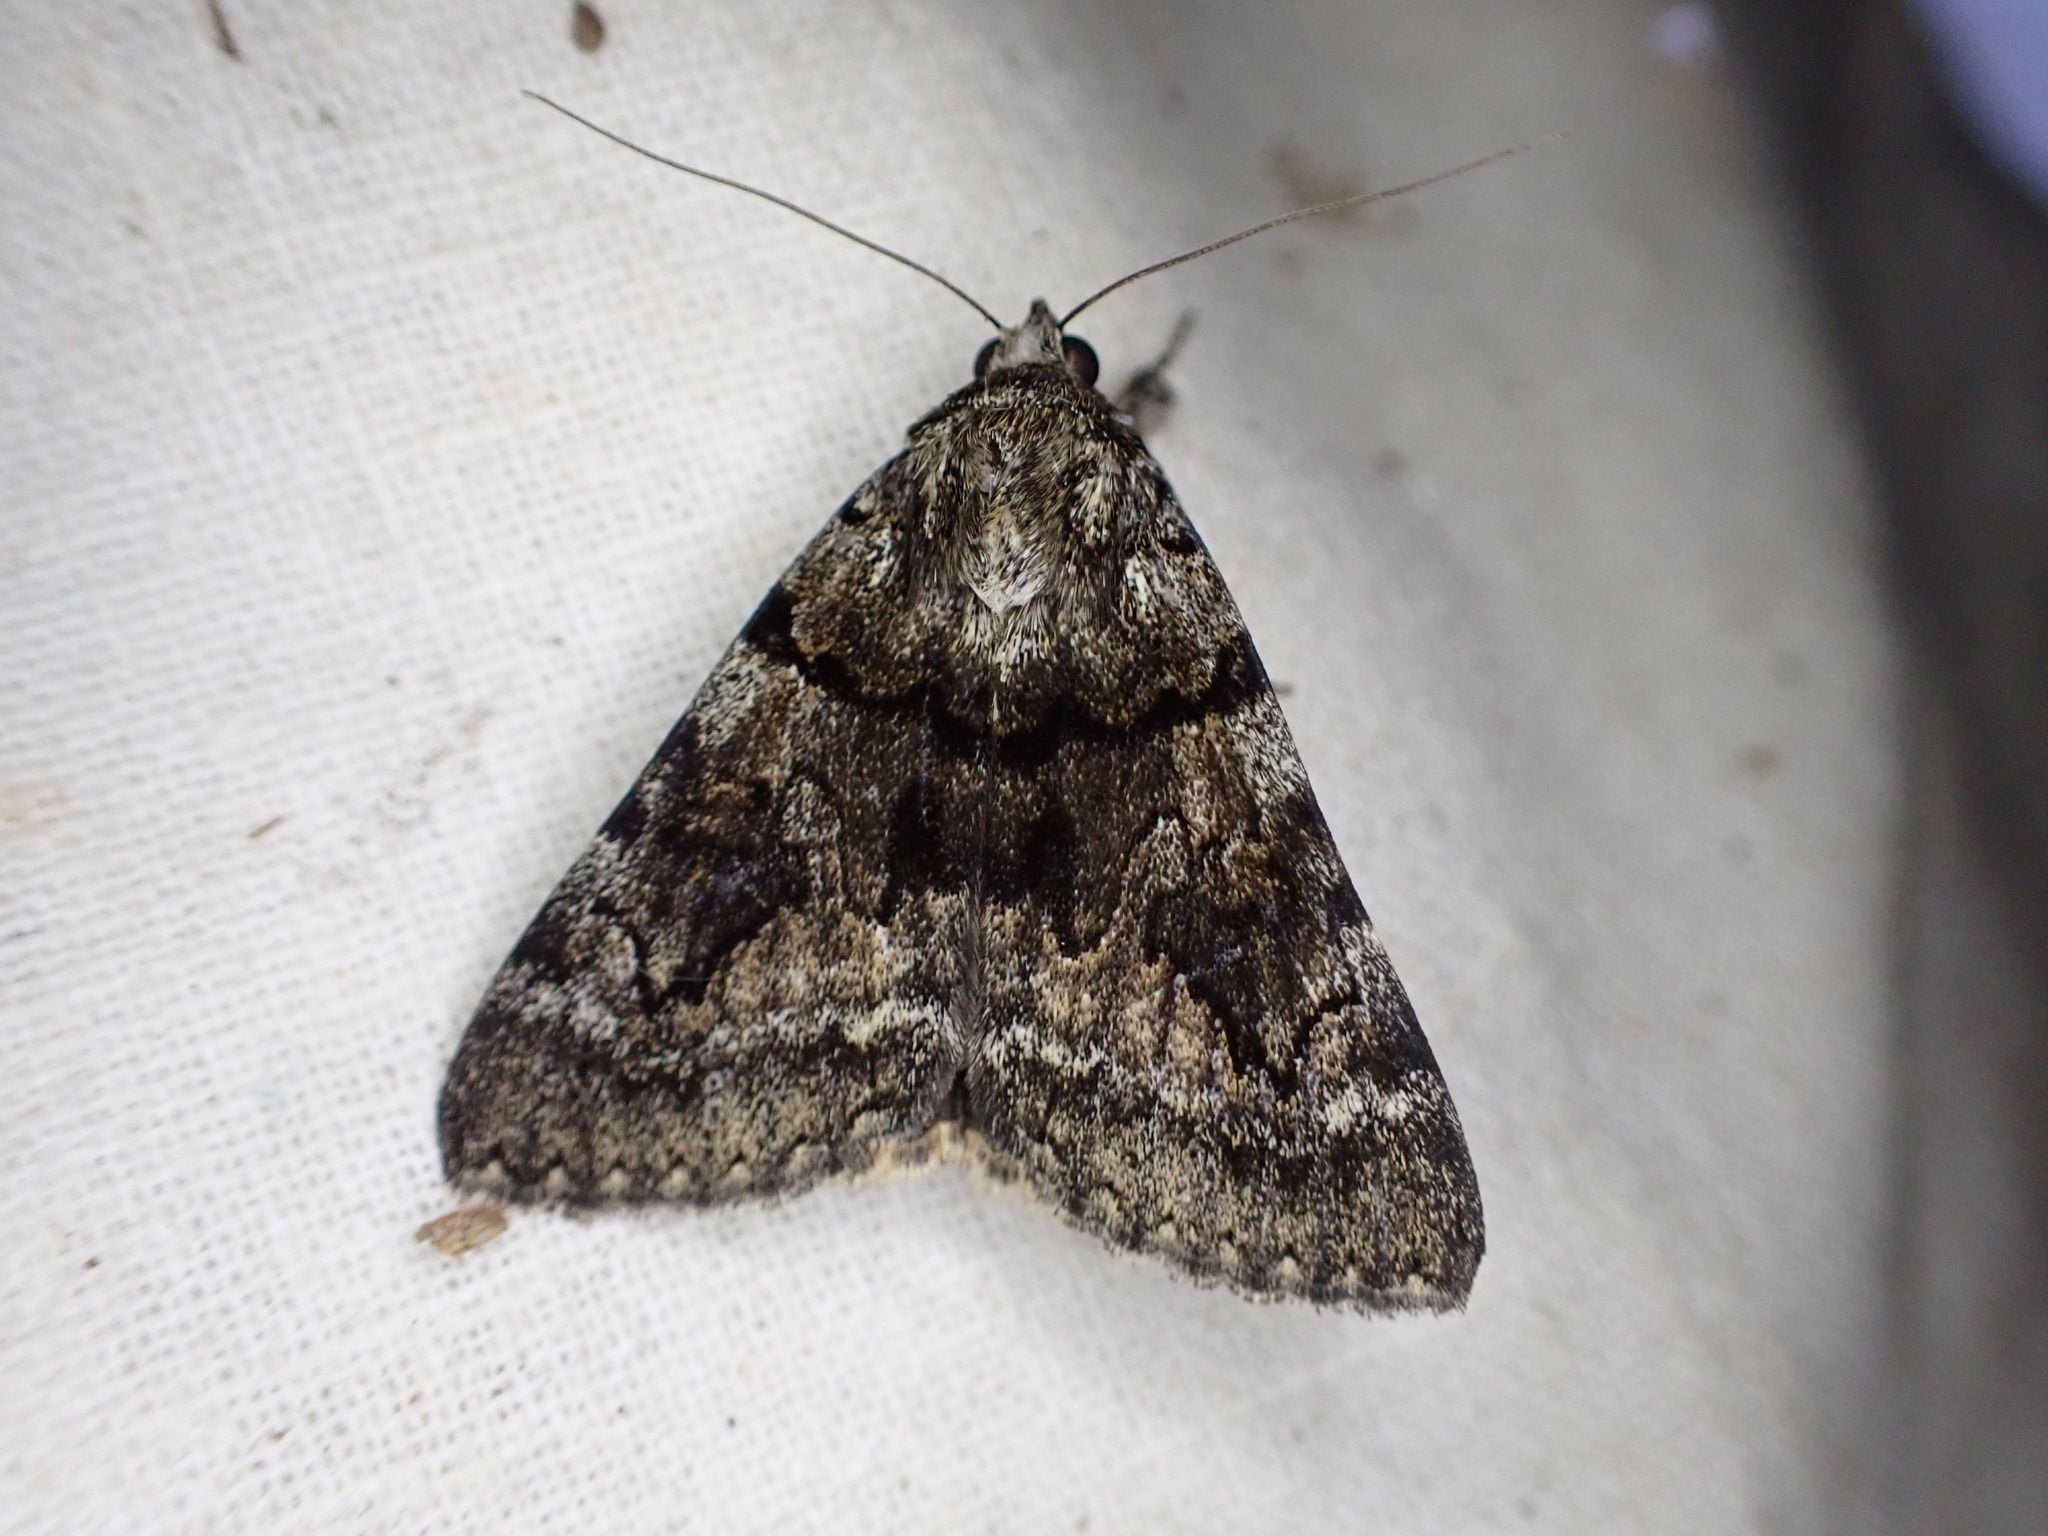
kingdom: Animalia
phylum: Arthropoda
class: Insecta
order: Lepidoptera
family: Erebidae
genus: Catocala
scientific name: Catocala nymphagoga
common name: Oak yellow underwing
